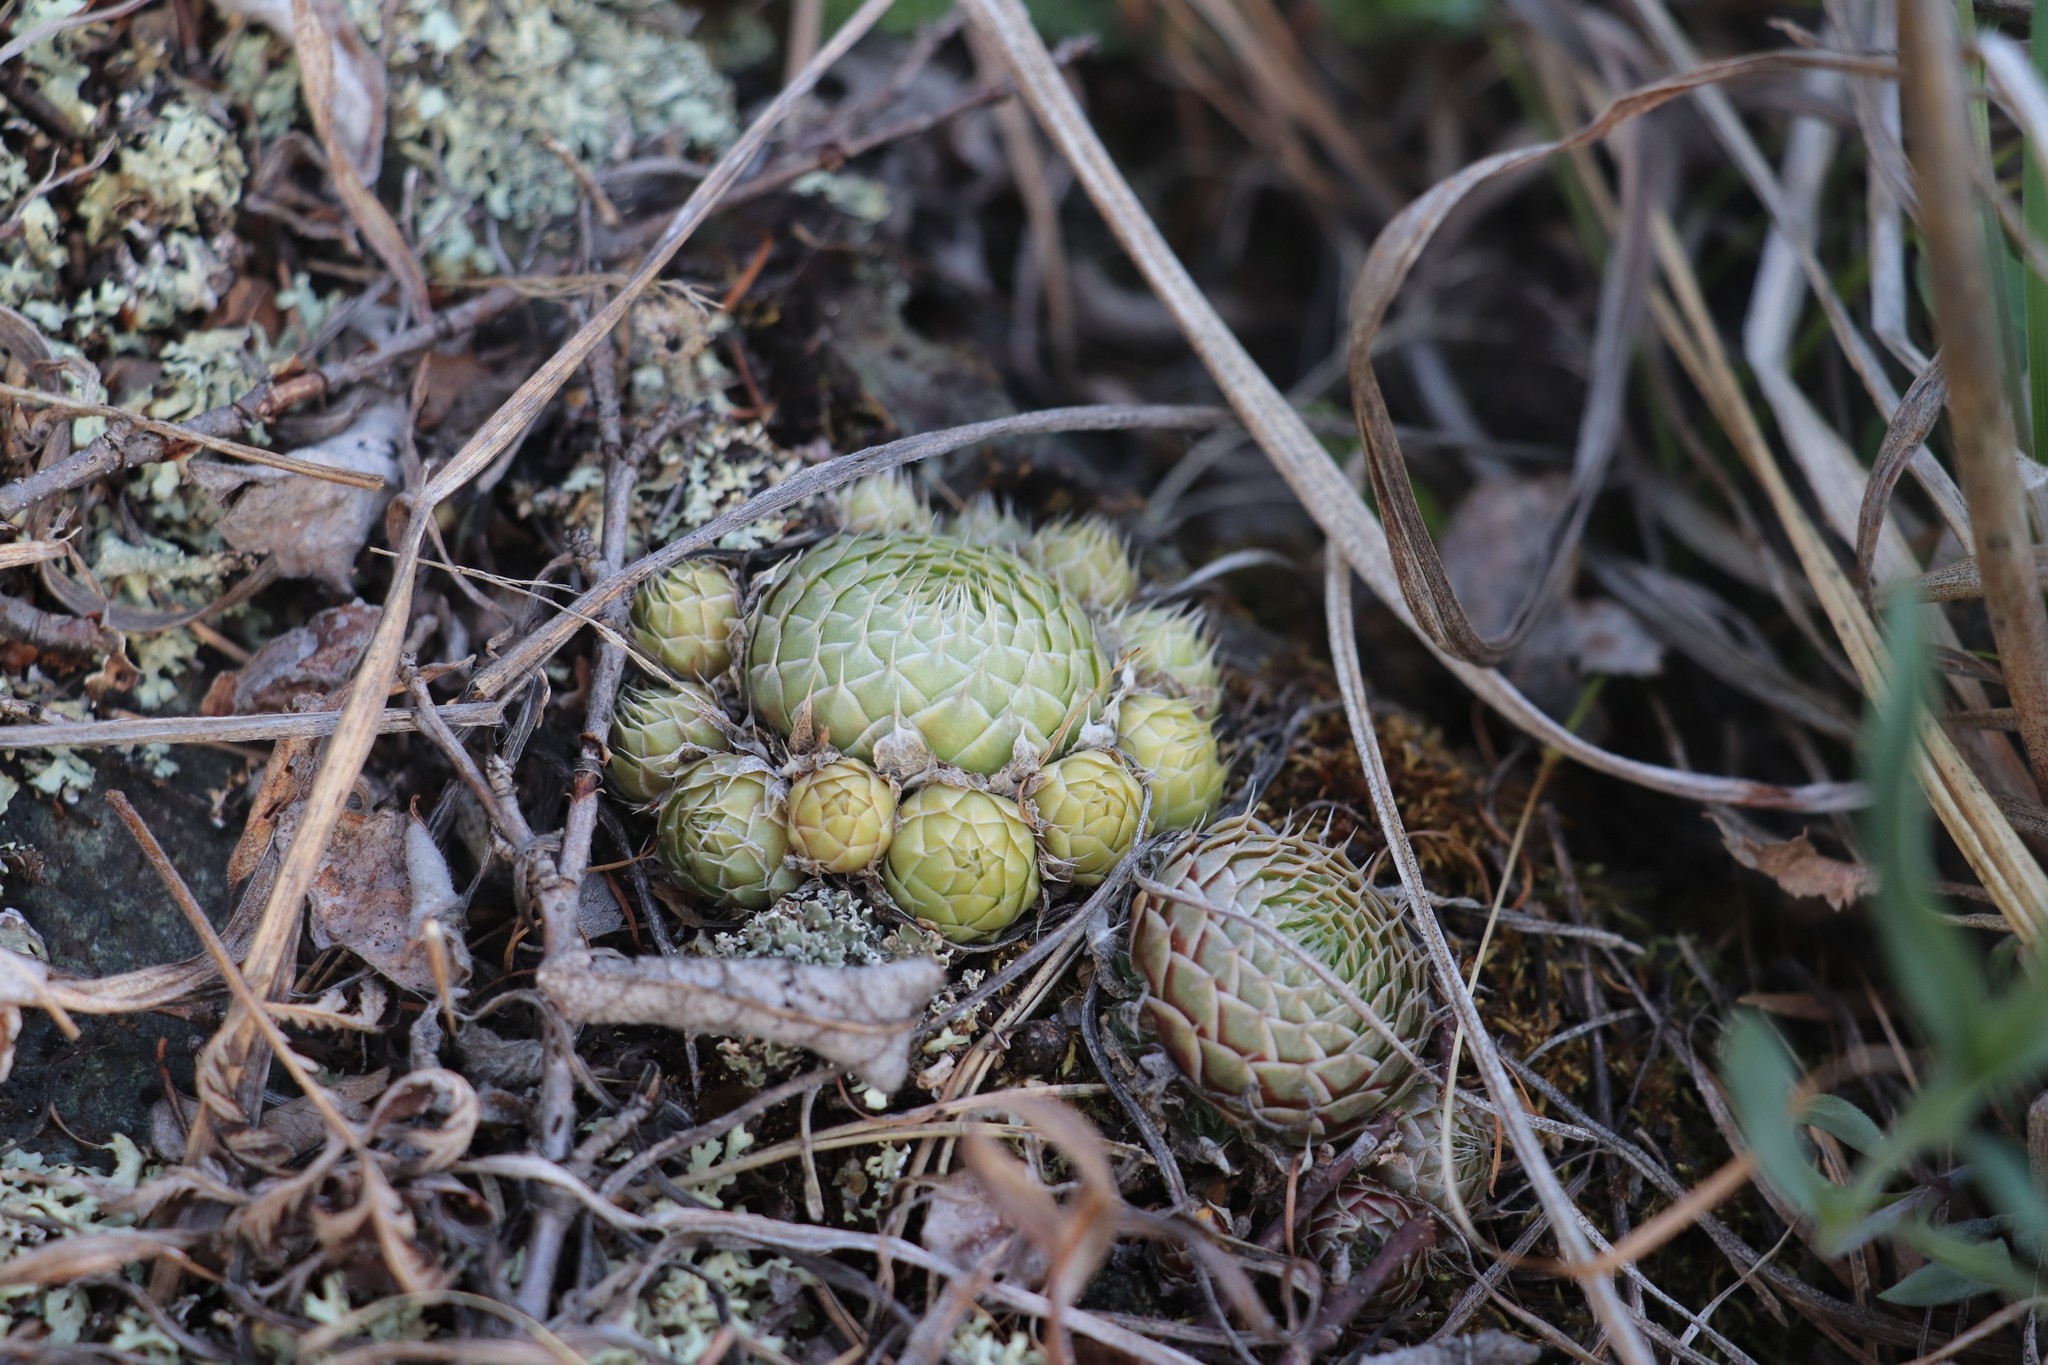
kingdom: Plantae
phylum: Tracheophyta
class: Magnoliopsida
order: Saxifragales
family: Crassulaceae
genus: Orostachys
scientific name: Orostachys spinosa
